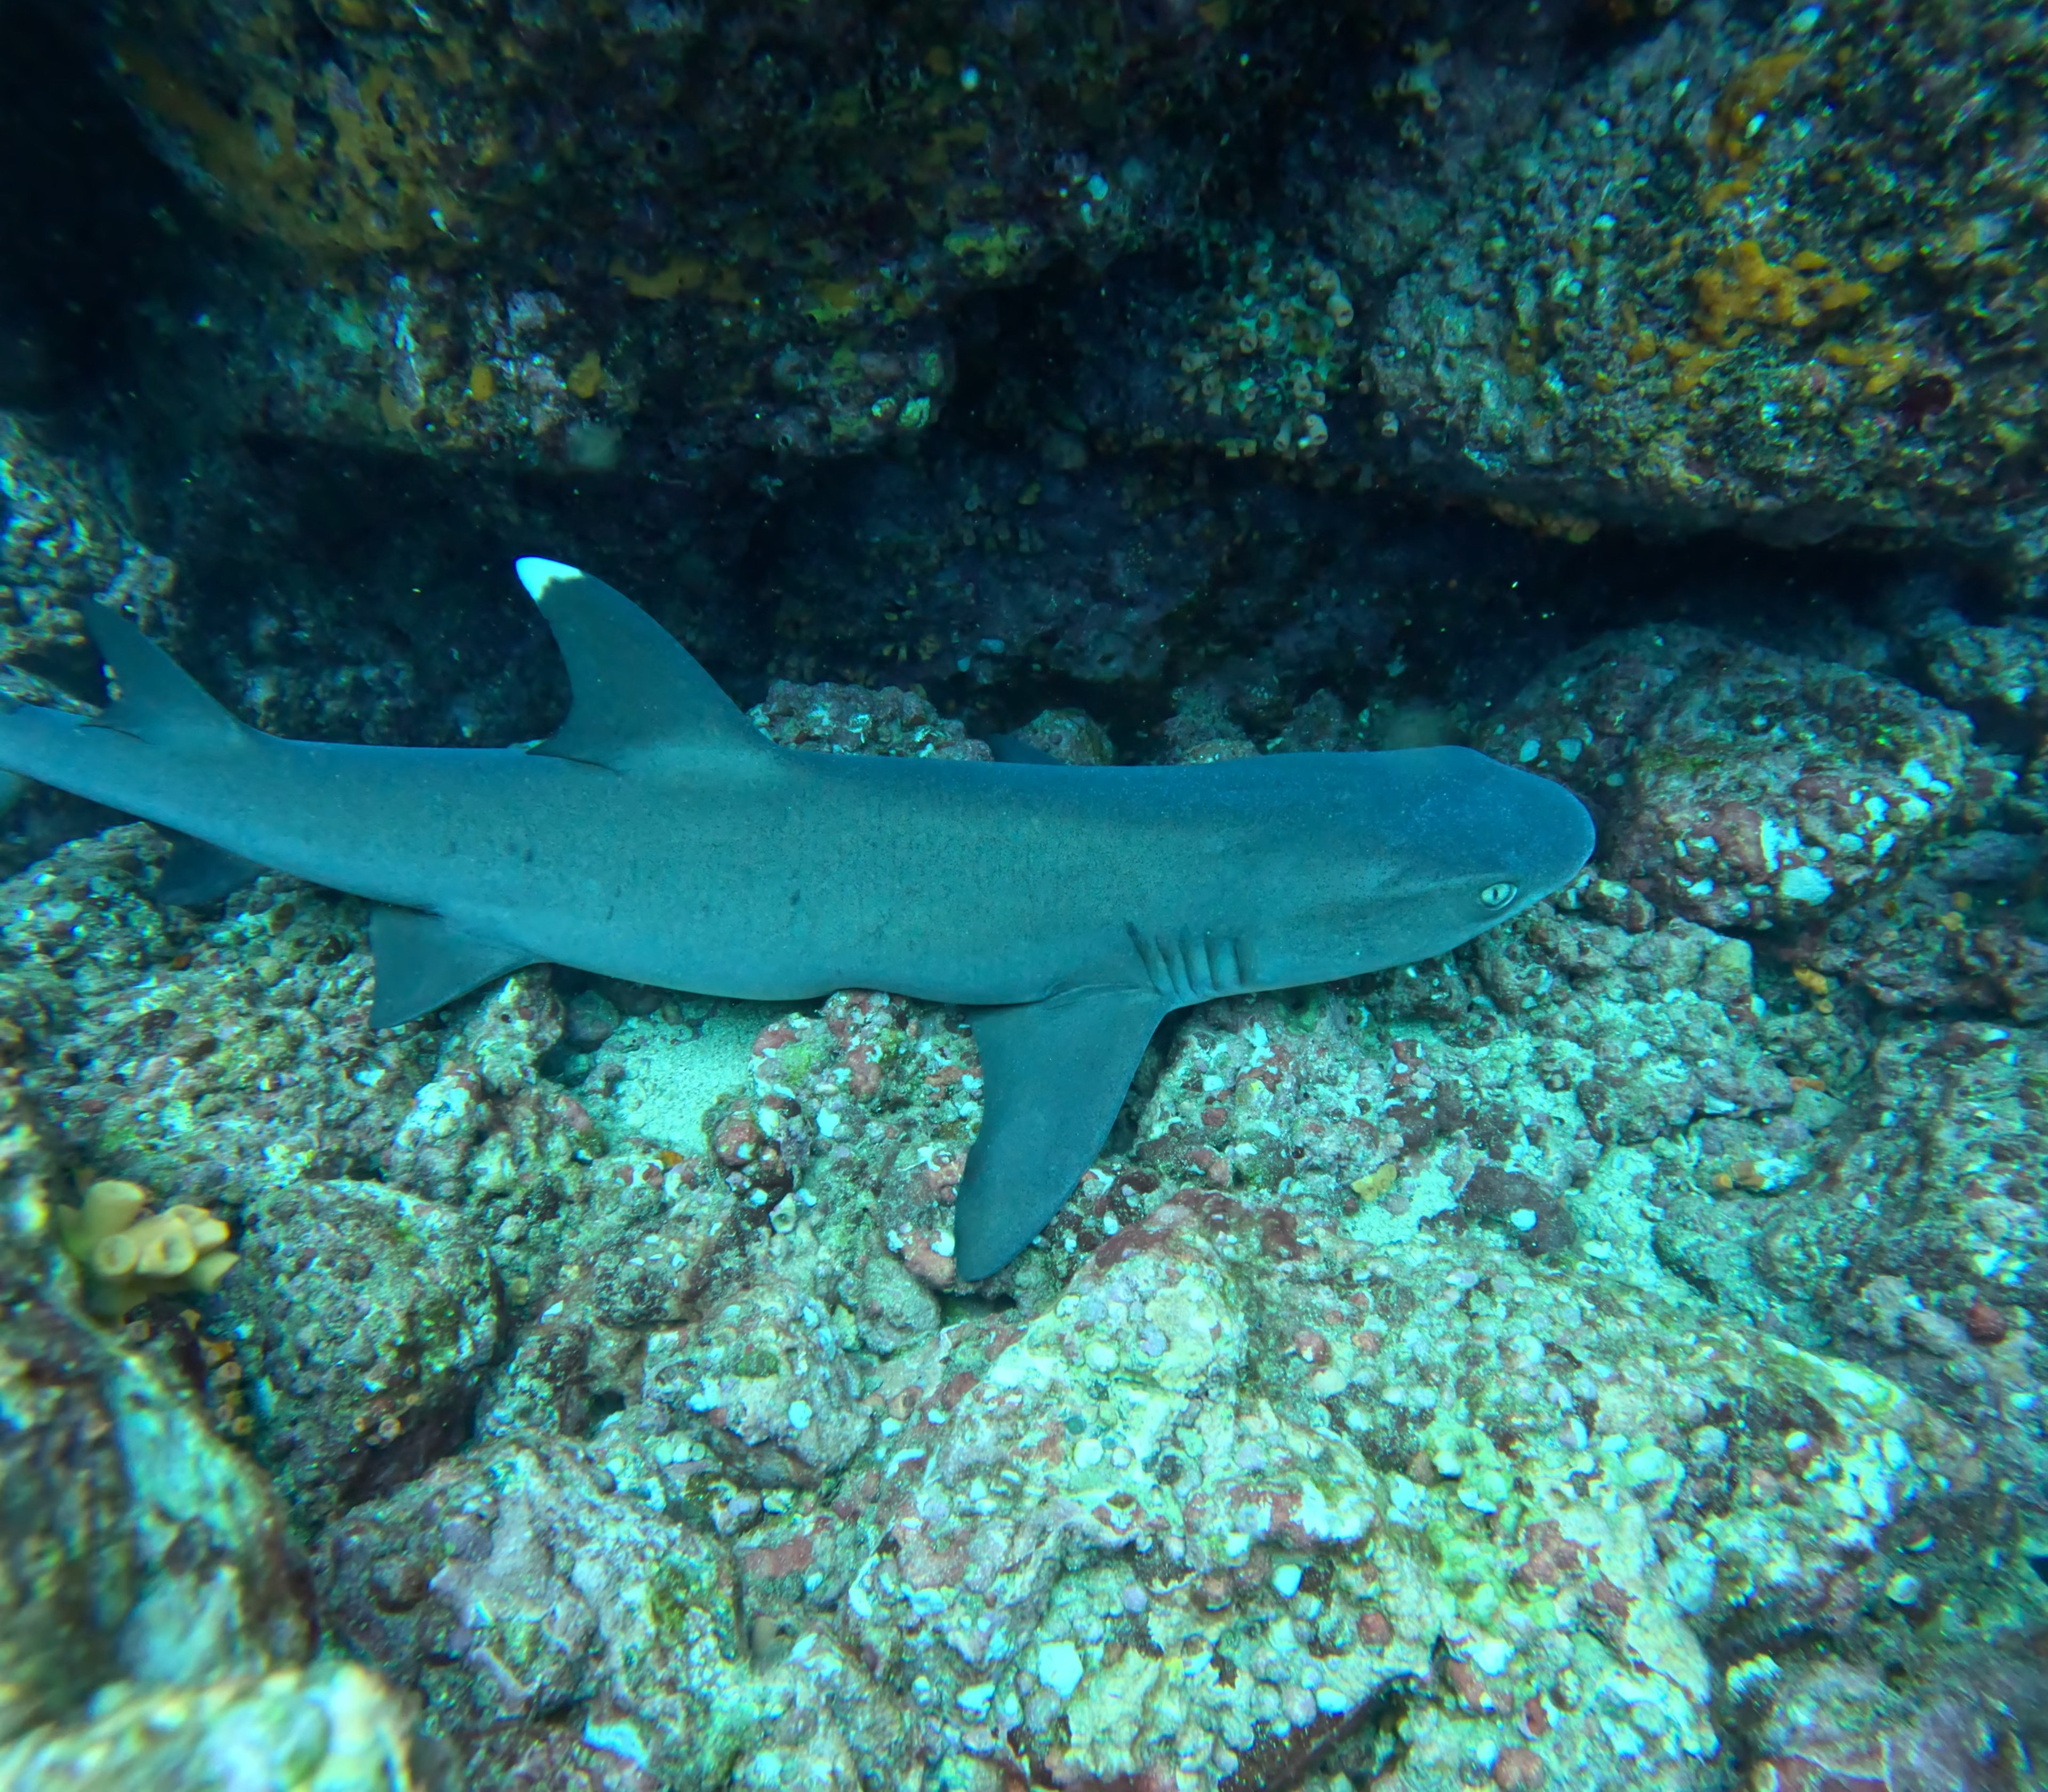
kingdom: Animalia
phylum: Chordata
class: Elasmobranchii
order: Carcharhiniformes
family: Carcharhinidae
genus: Triaenodon
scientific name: Triaenodon obesus
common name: Whitetip reef shark
